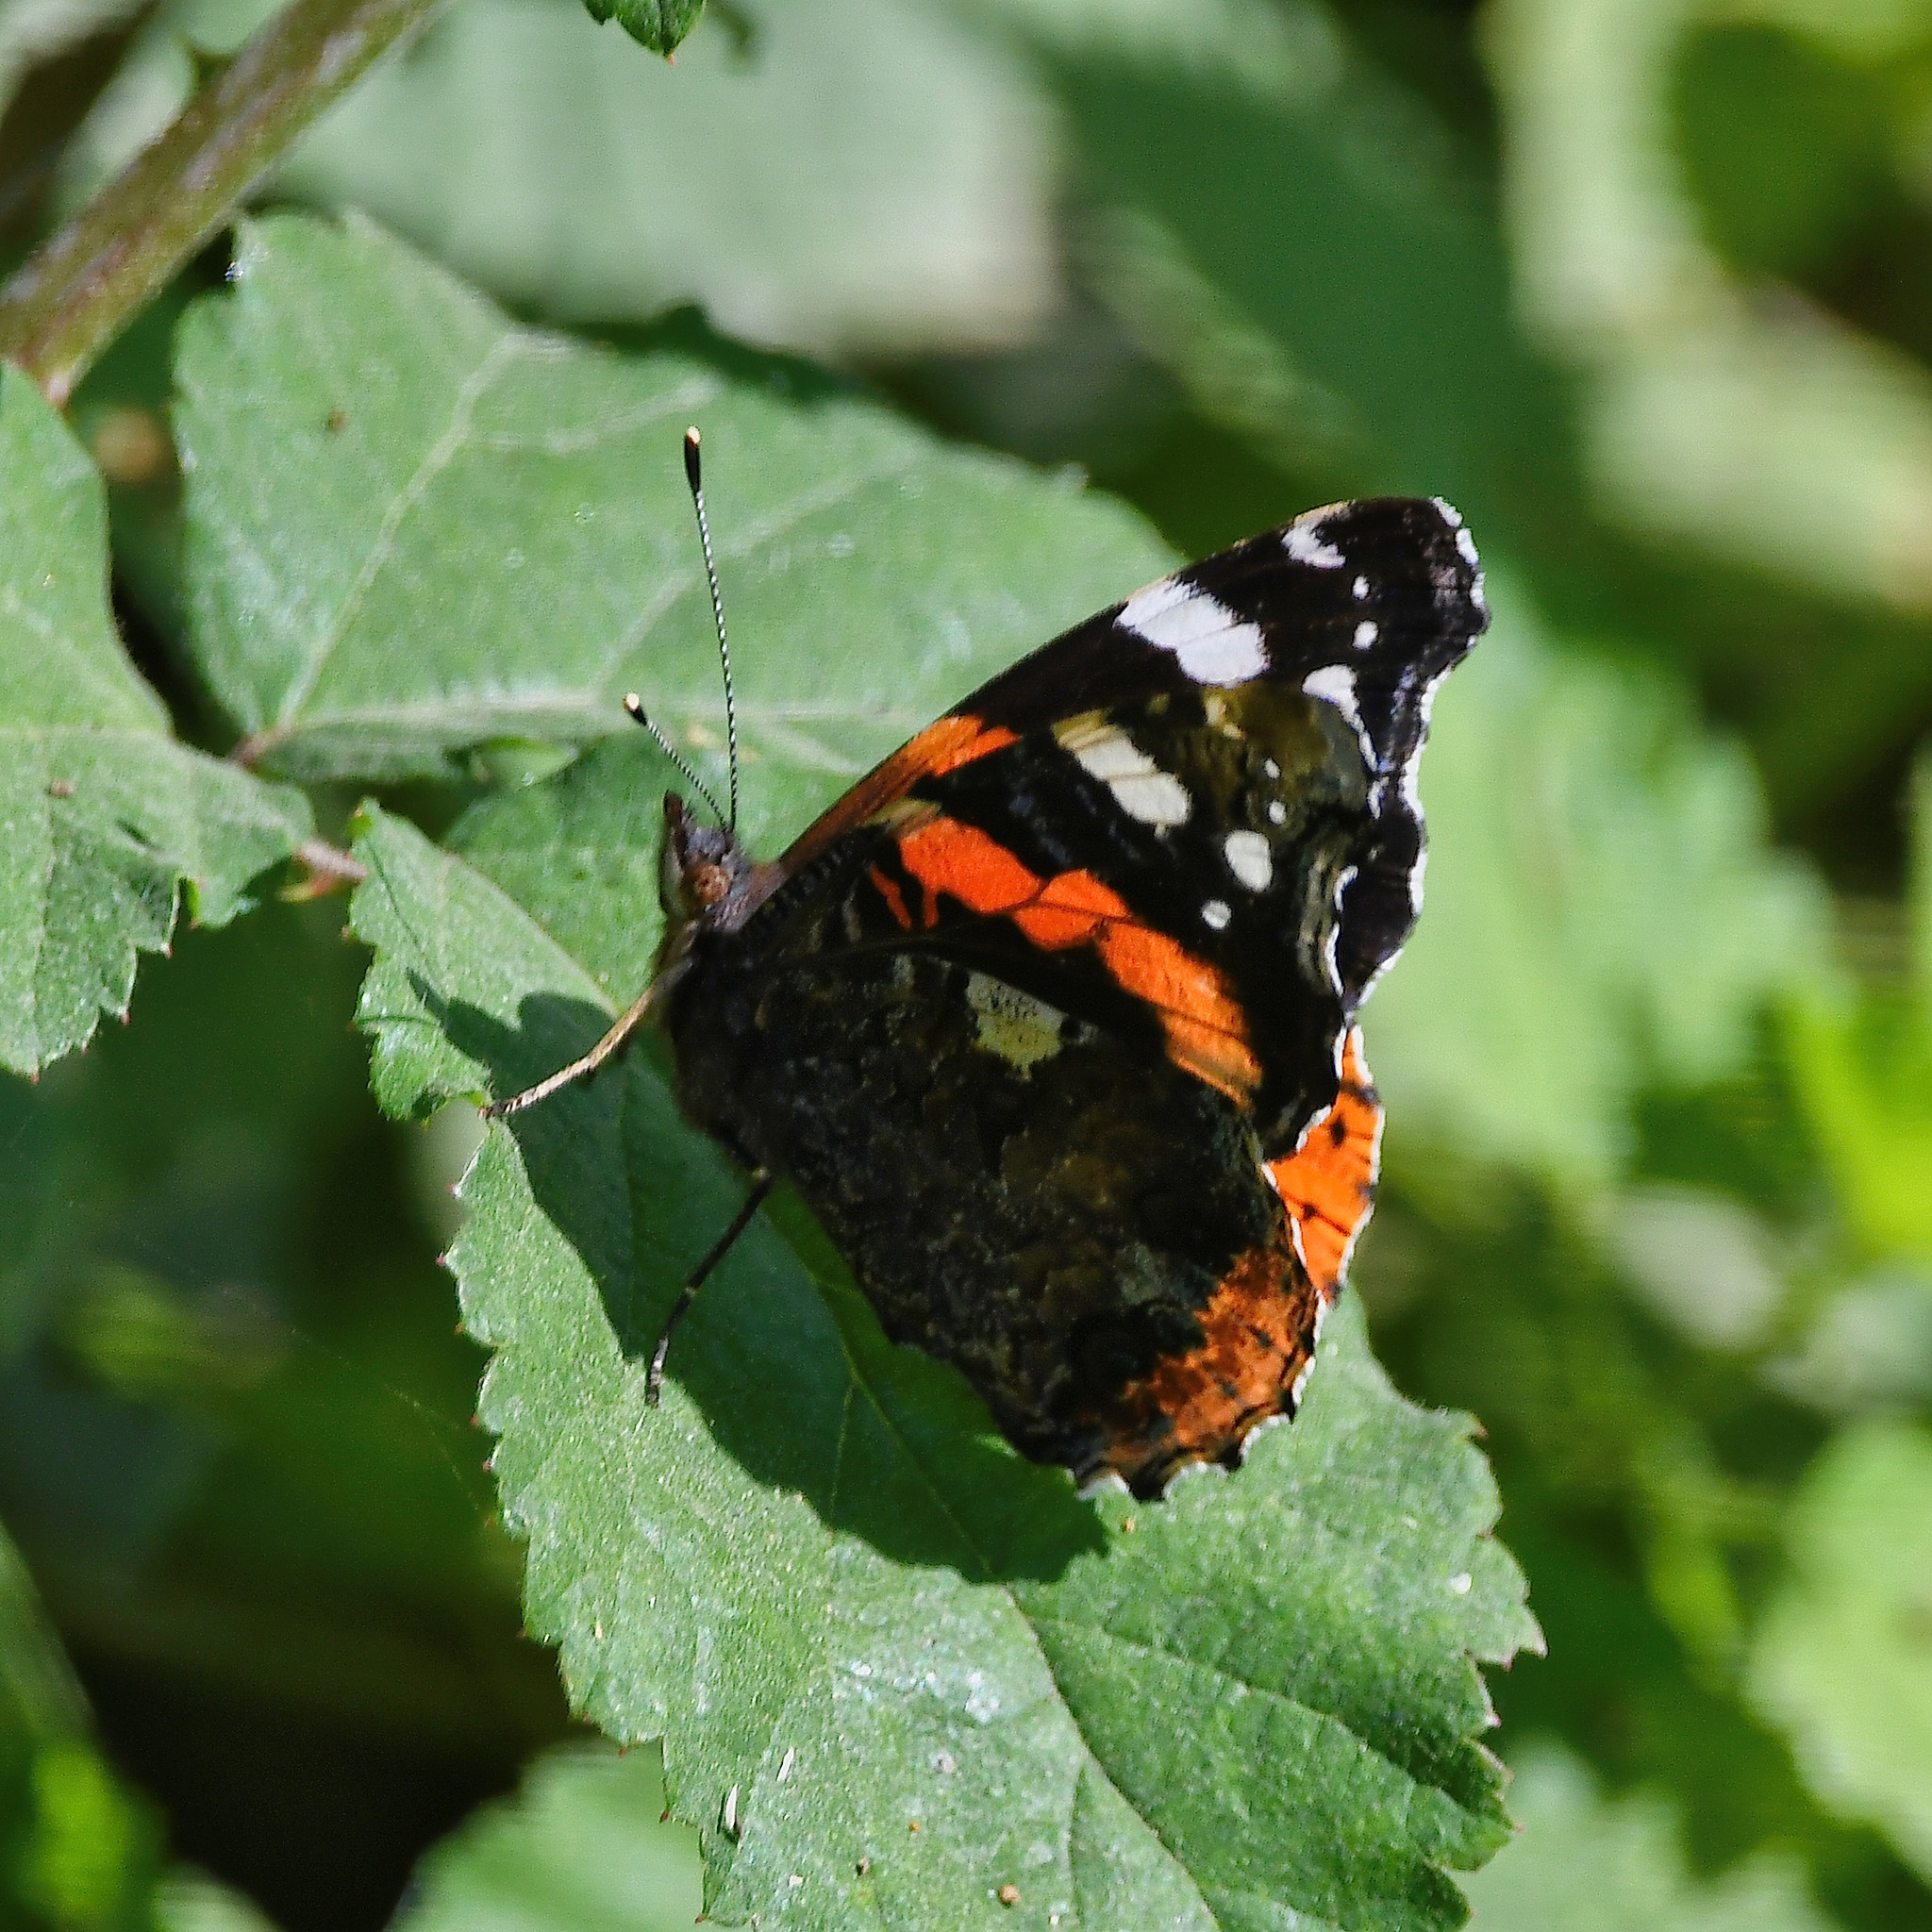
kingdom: Animalia
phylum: Arthropoda
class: Insecta
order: Lepidoptera
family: Nymphalidae
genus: Vanessa
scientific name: Vanessa atalanta
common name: Red admiral
